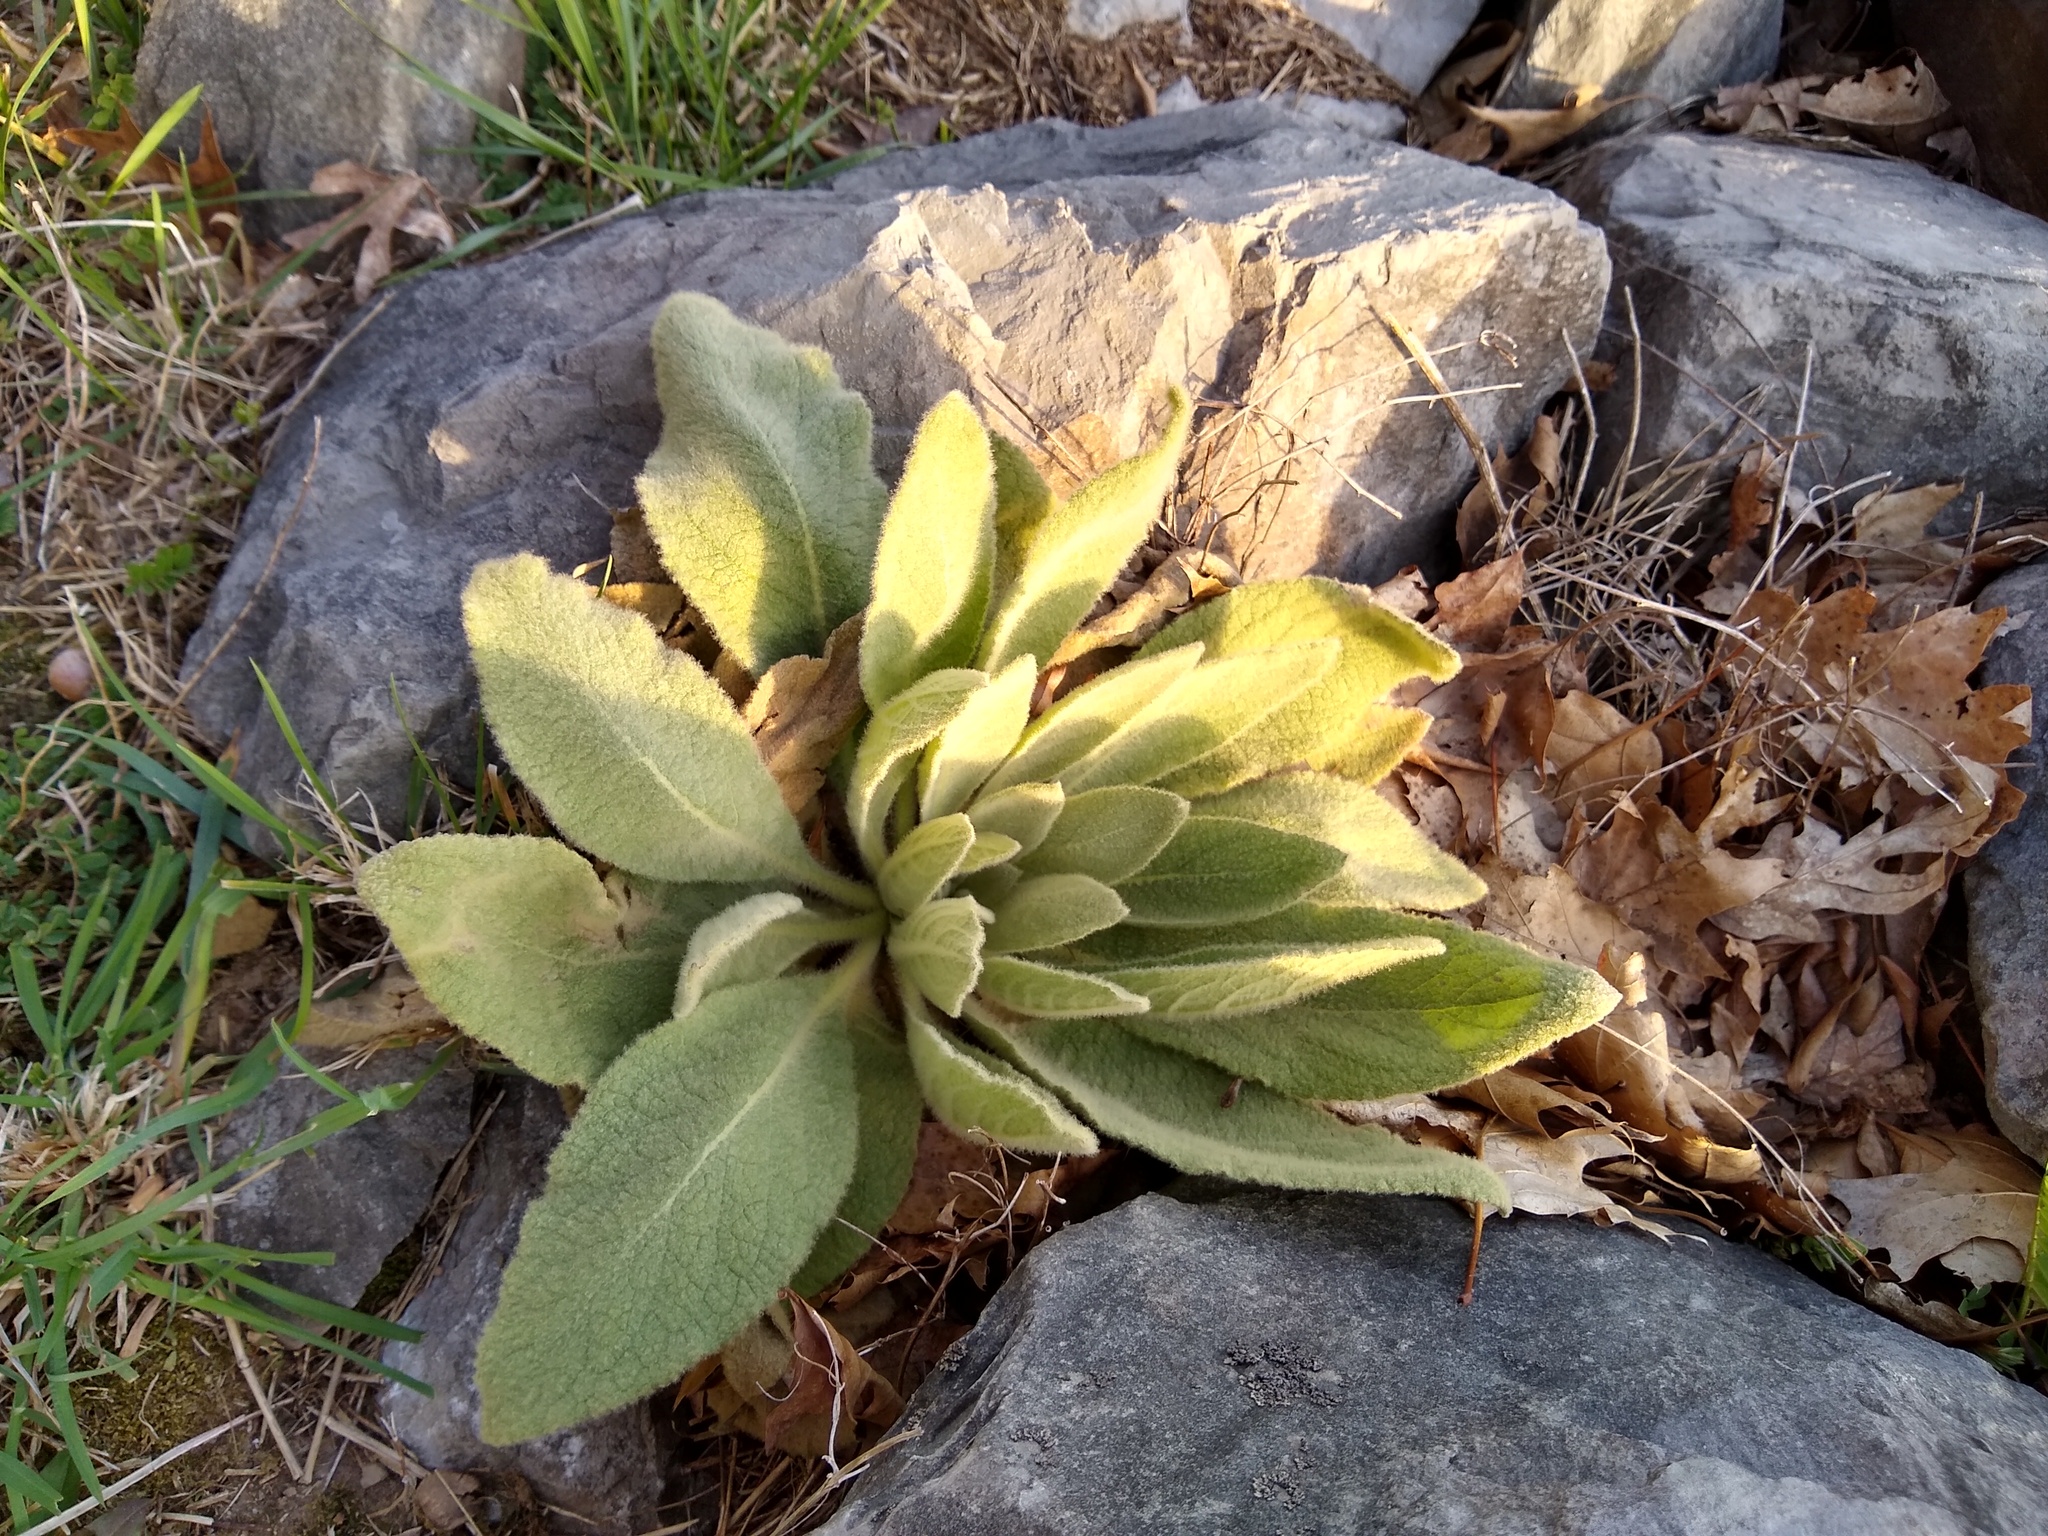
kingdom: Plantae
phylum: Tracheophyta
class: Magnoliopsida
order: Lamiales
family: Scrophulariaceae
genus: Verbascum
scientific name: Verbascum thapsus
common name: Common mullein
